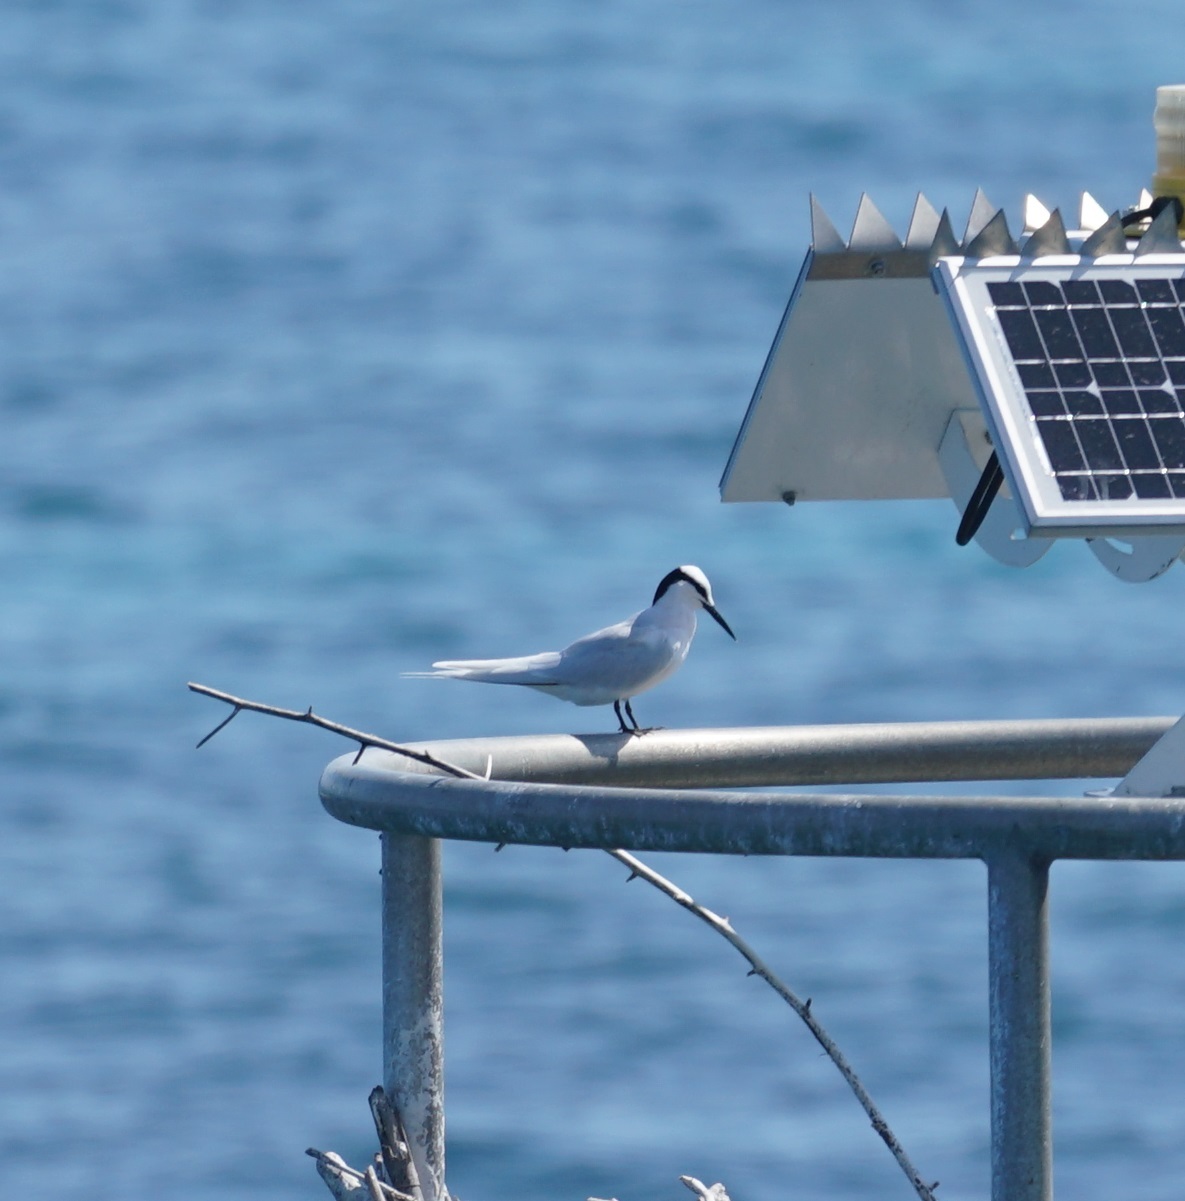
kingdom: Animalia
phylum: Chordata
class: Aves
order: Charadriiformes
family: Laridae
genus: Sterna
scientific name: Sterna sumatrana
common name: Black-naped tern
